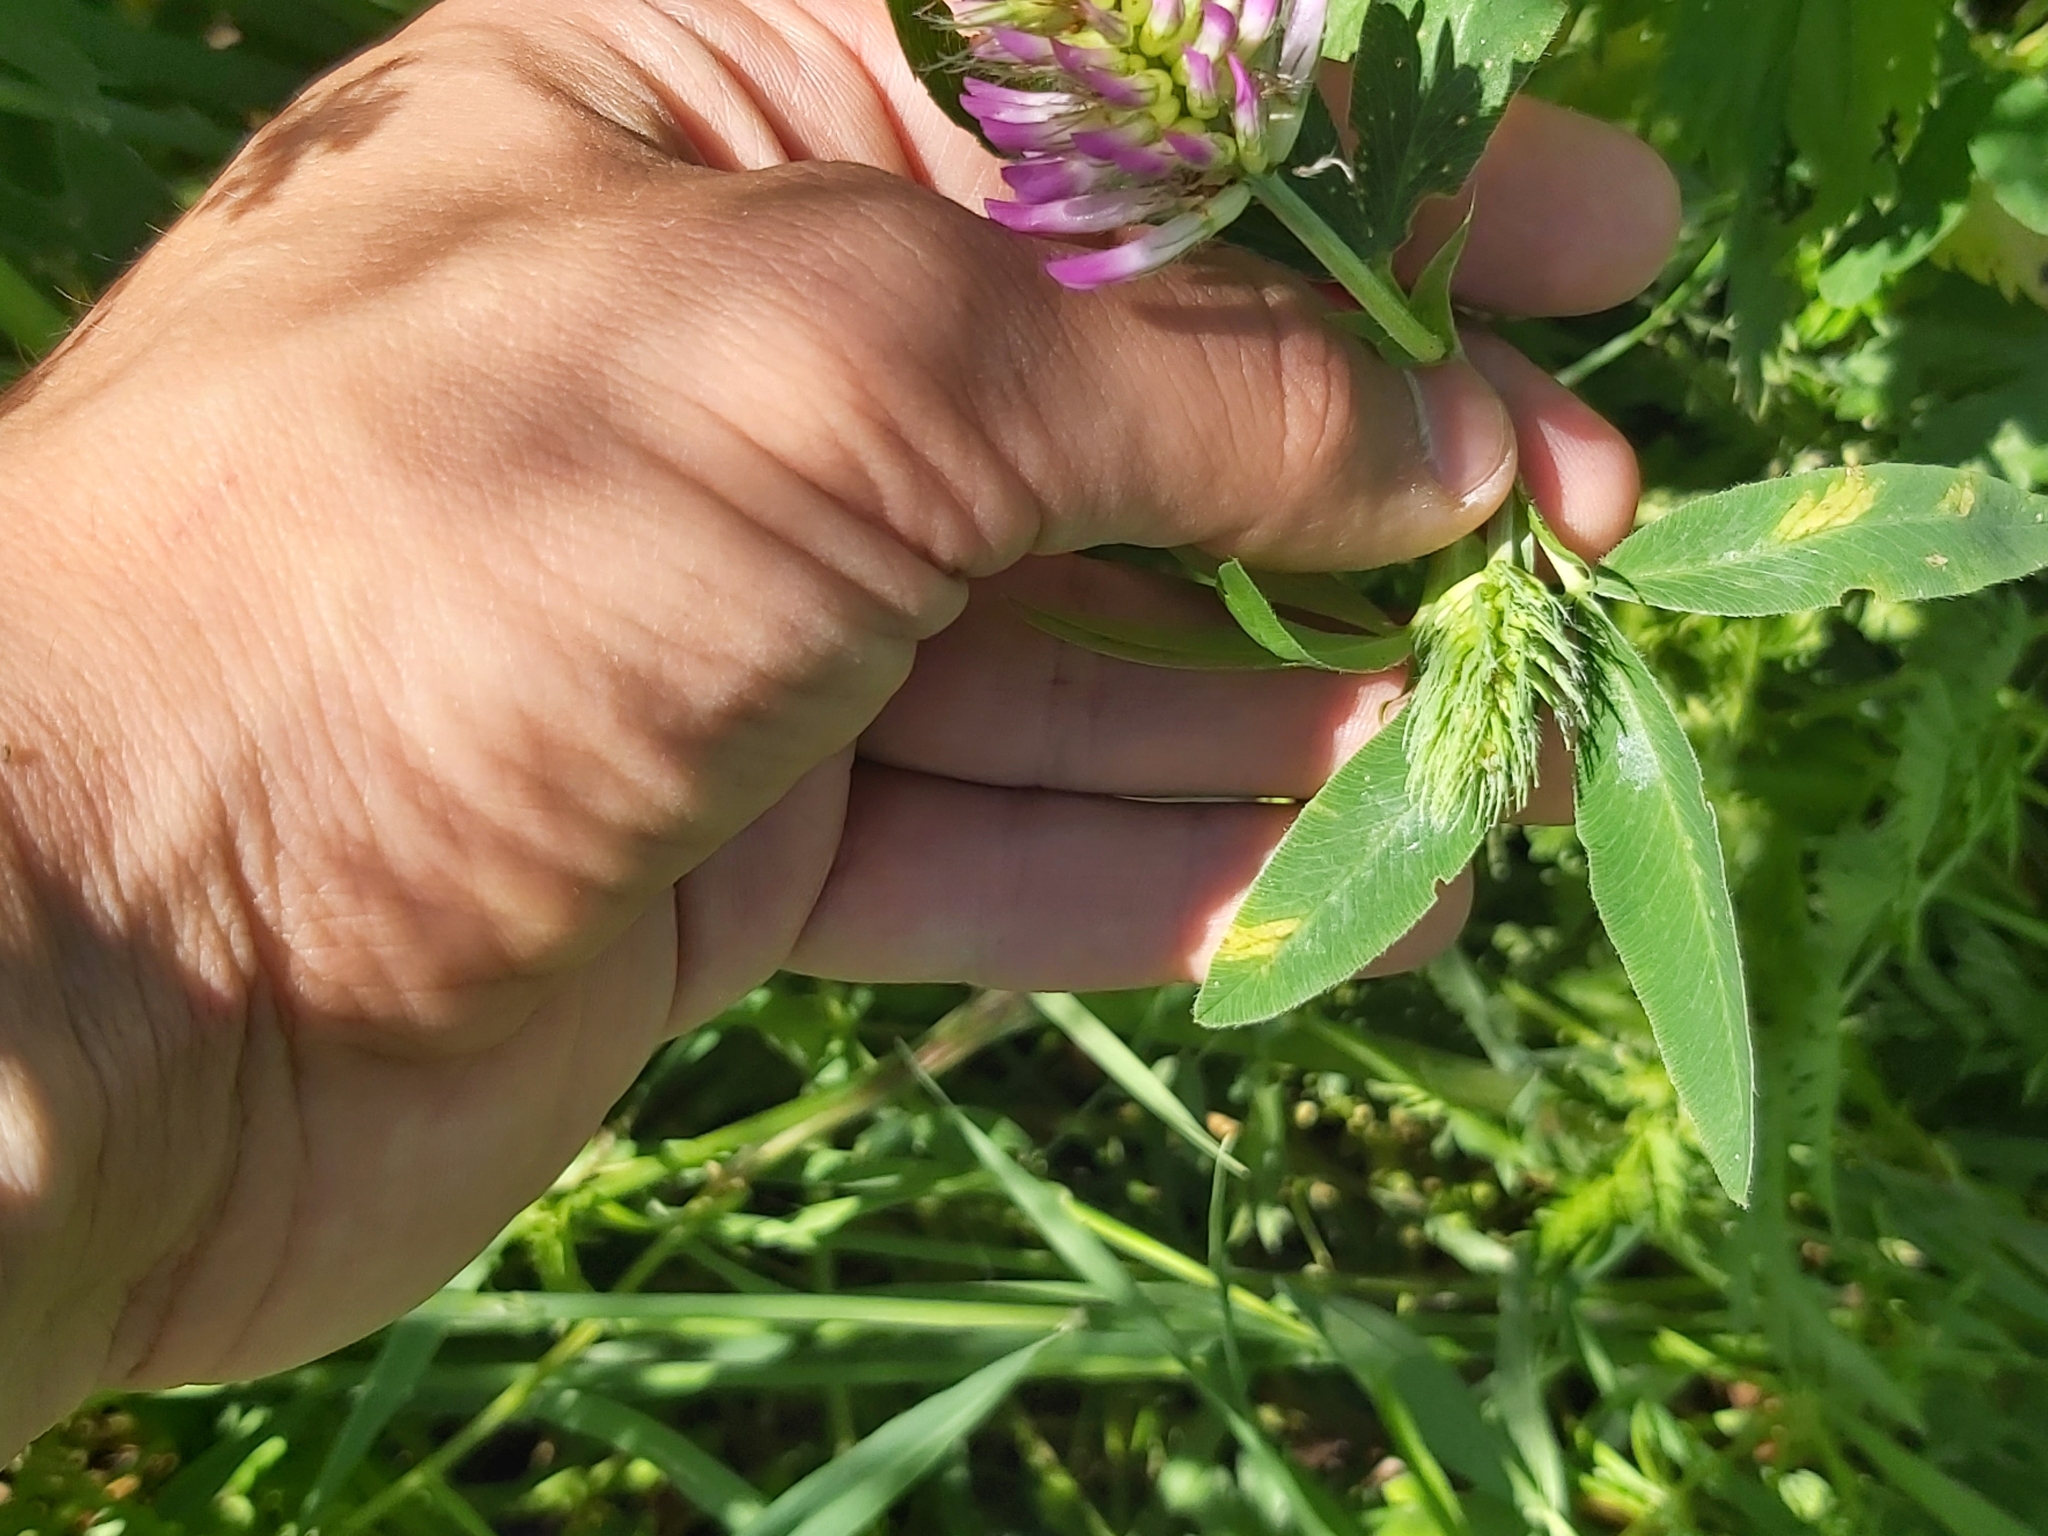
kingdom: Plantae
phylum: Tracheophyta
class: Magnoliopsida
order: Fabales
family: Fabaceae
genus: Trifolium
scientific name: Trifolium medium
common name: Zigzag clover
